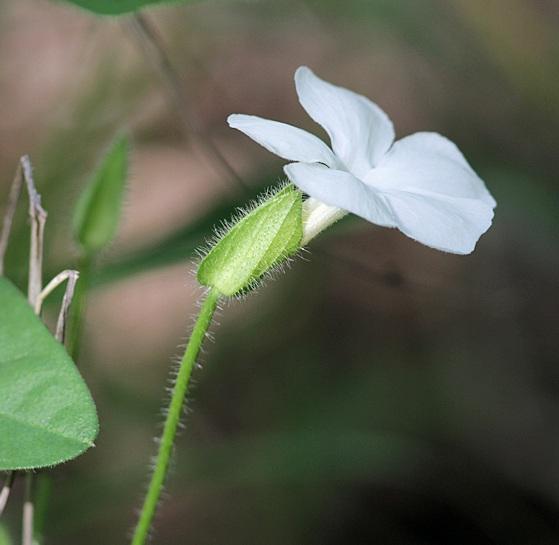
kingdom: Plantae
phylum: Tracheophyta
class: Magnoliopsida
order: Lamiales
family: Acanthaceae
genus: Thunbergia
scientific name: Thunbergia neglecta
